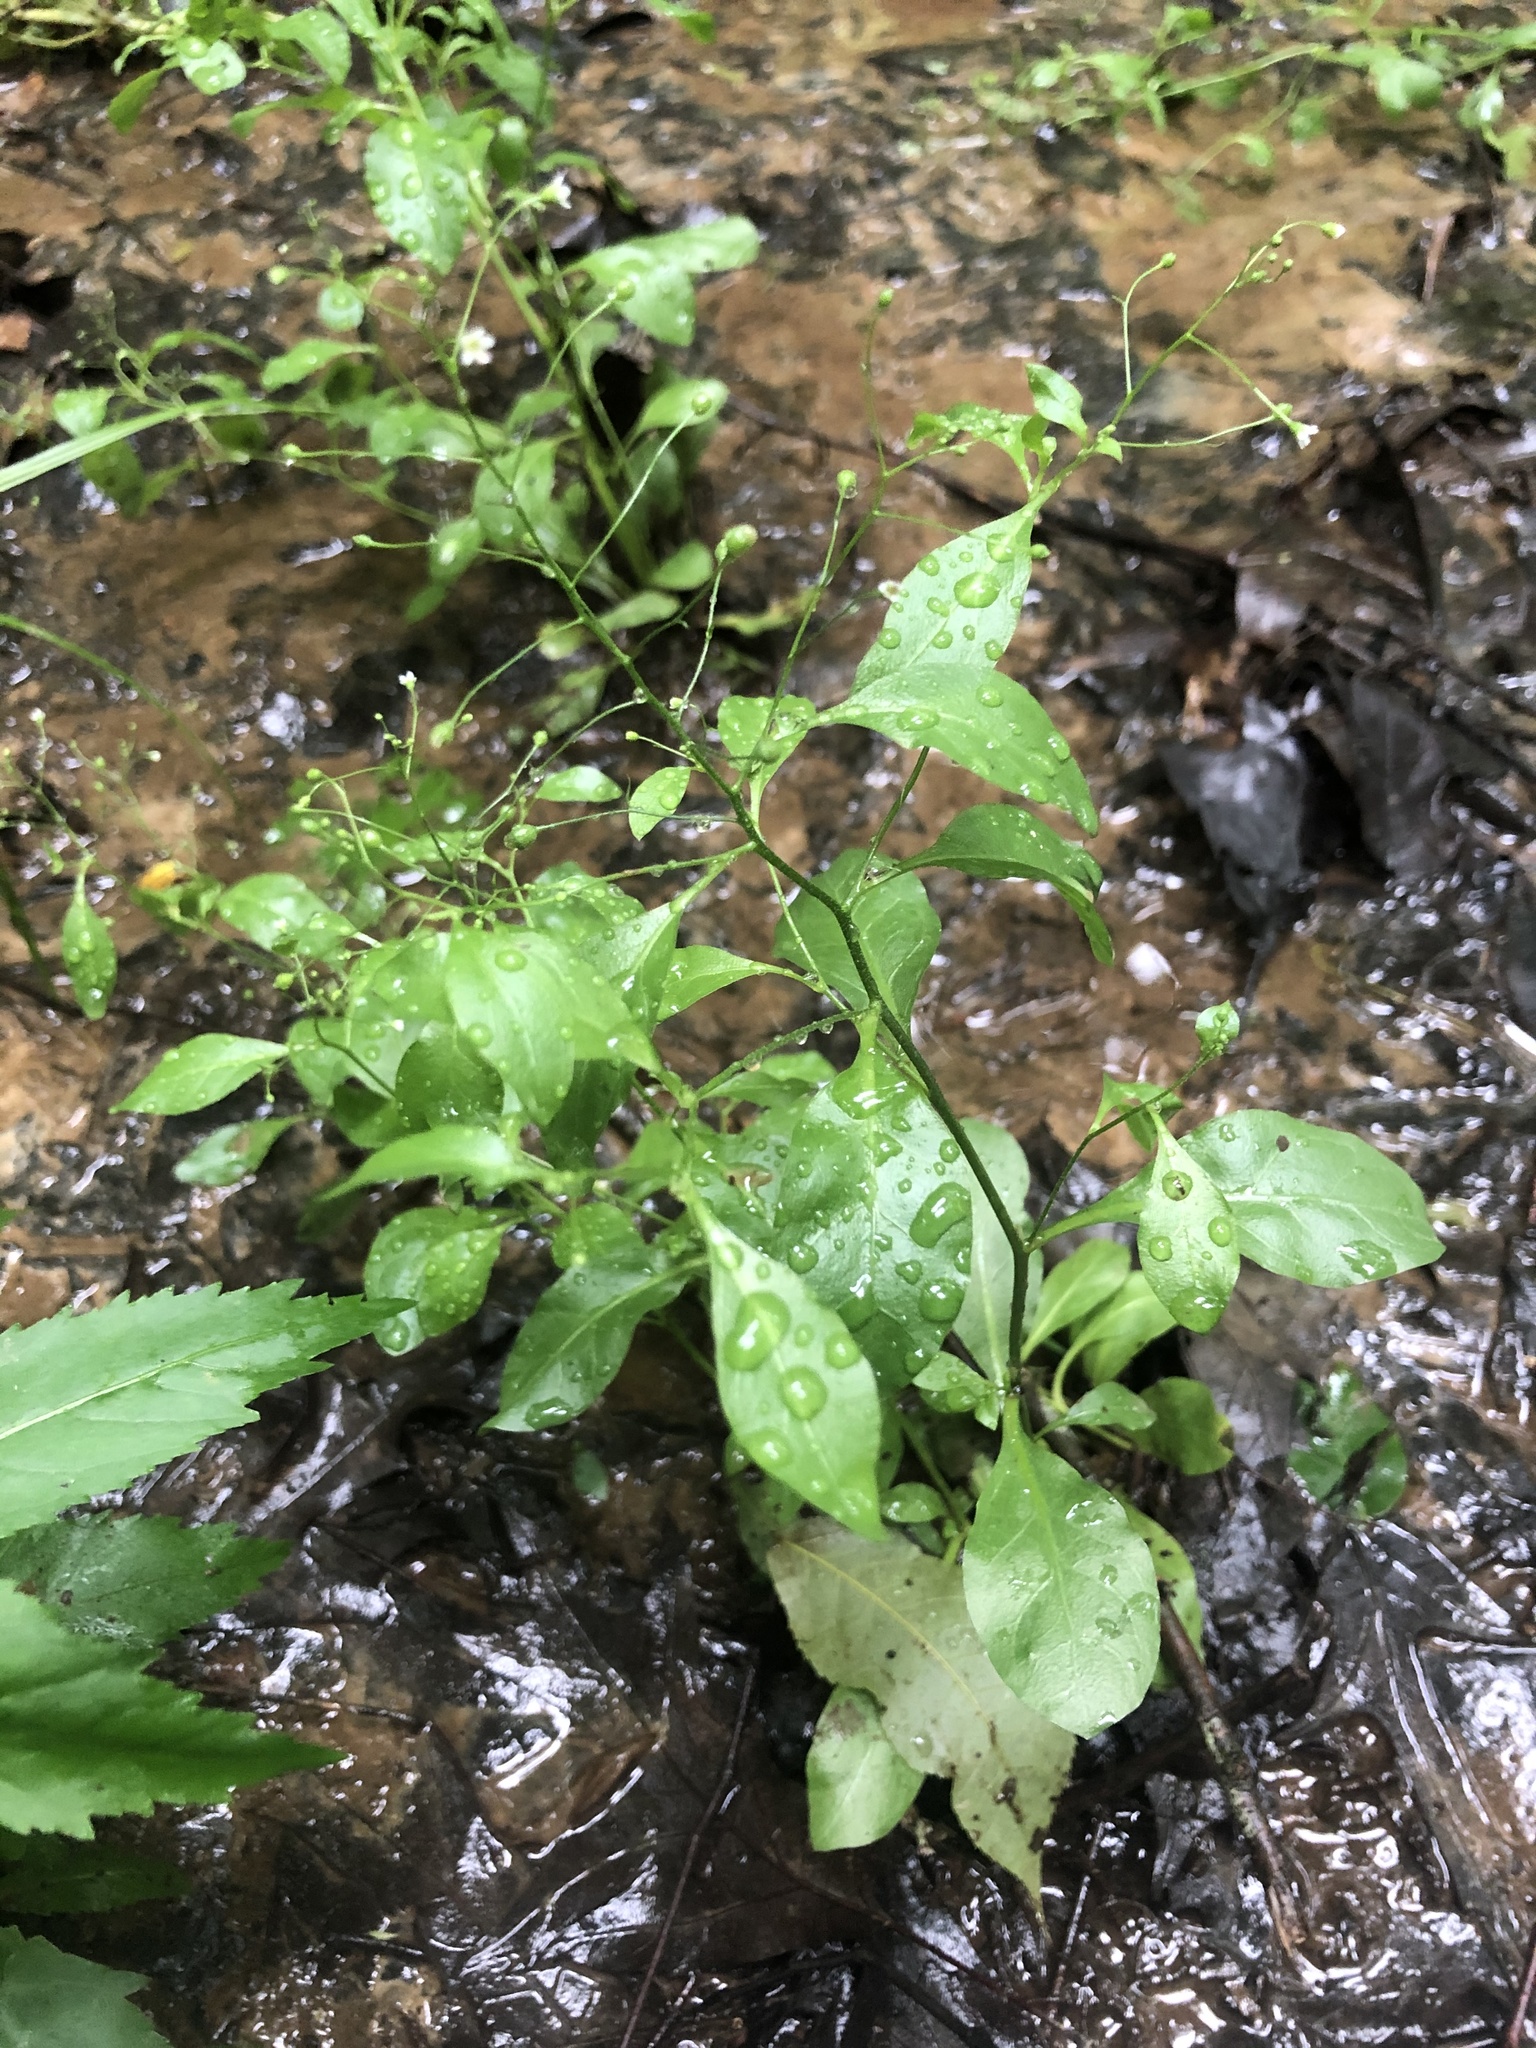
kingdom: Plantae
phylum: Tracheophyta
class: Magnoliopsida
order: Ericales
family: Primulaceae
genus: Samolus
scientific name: Samolus parviflorus
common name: False water pimpernel
